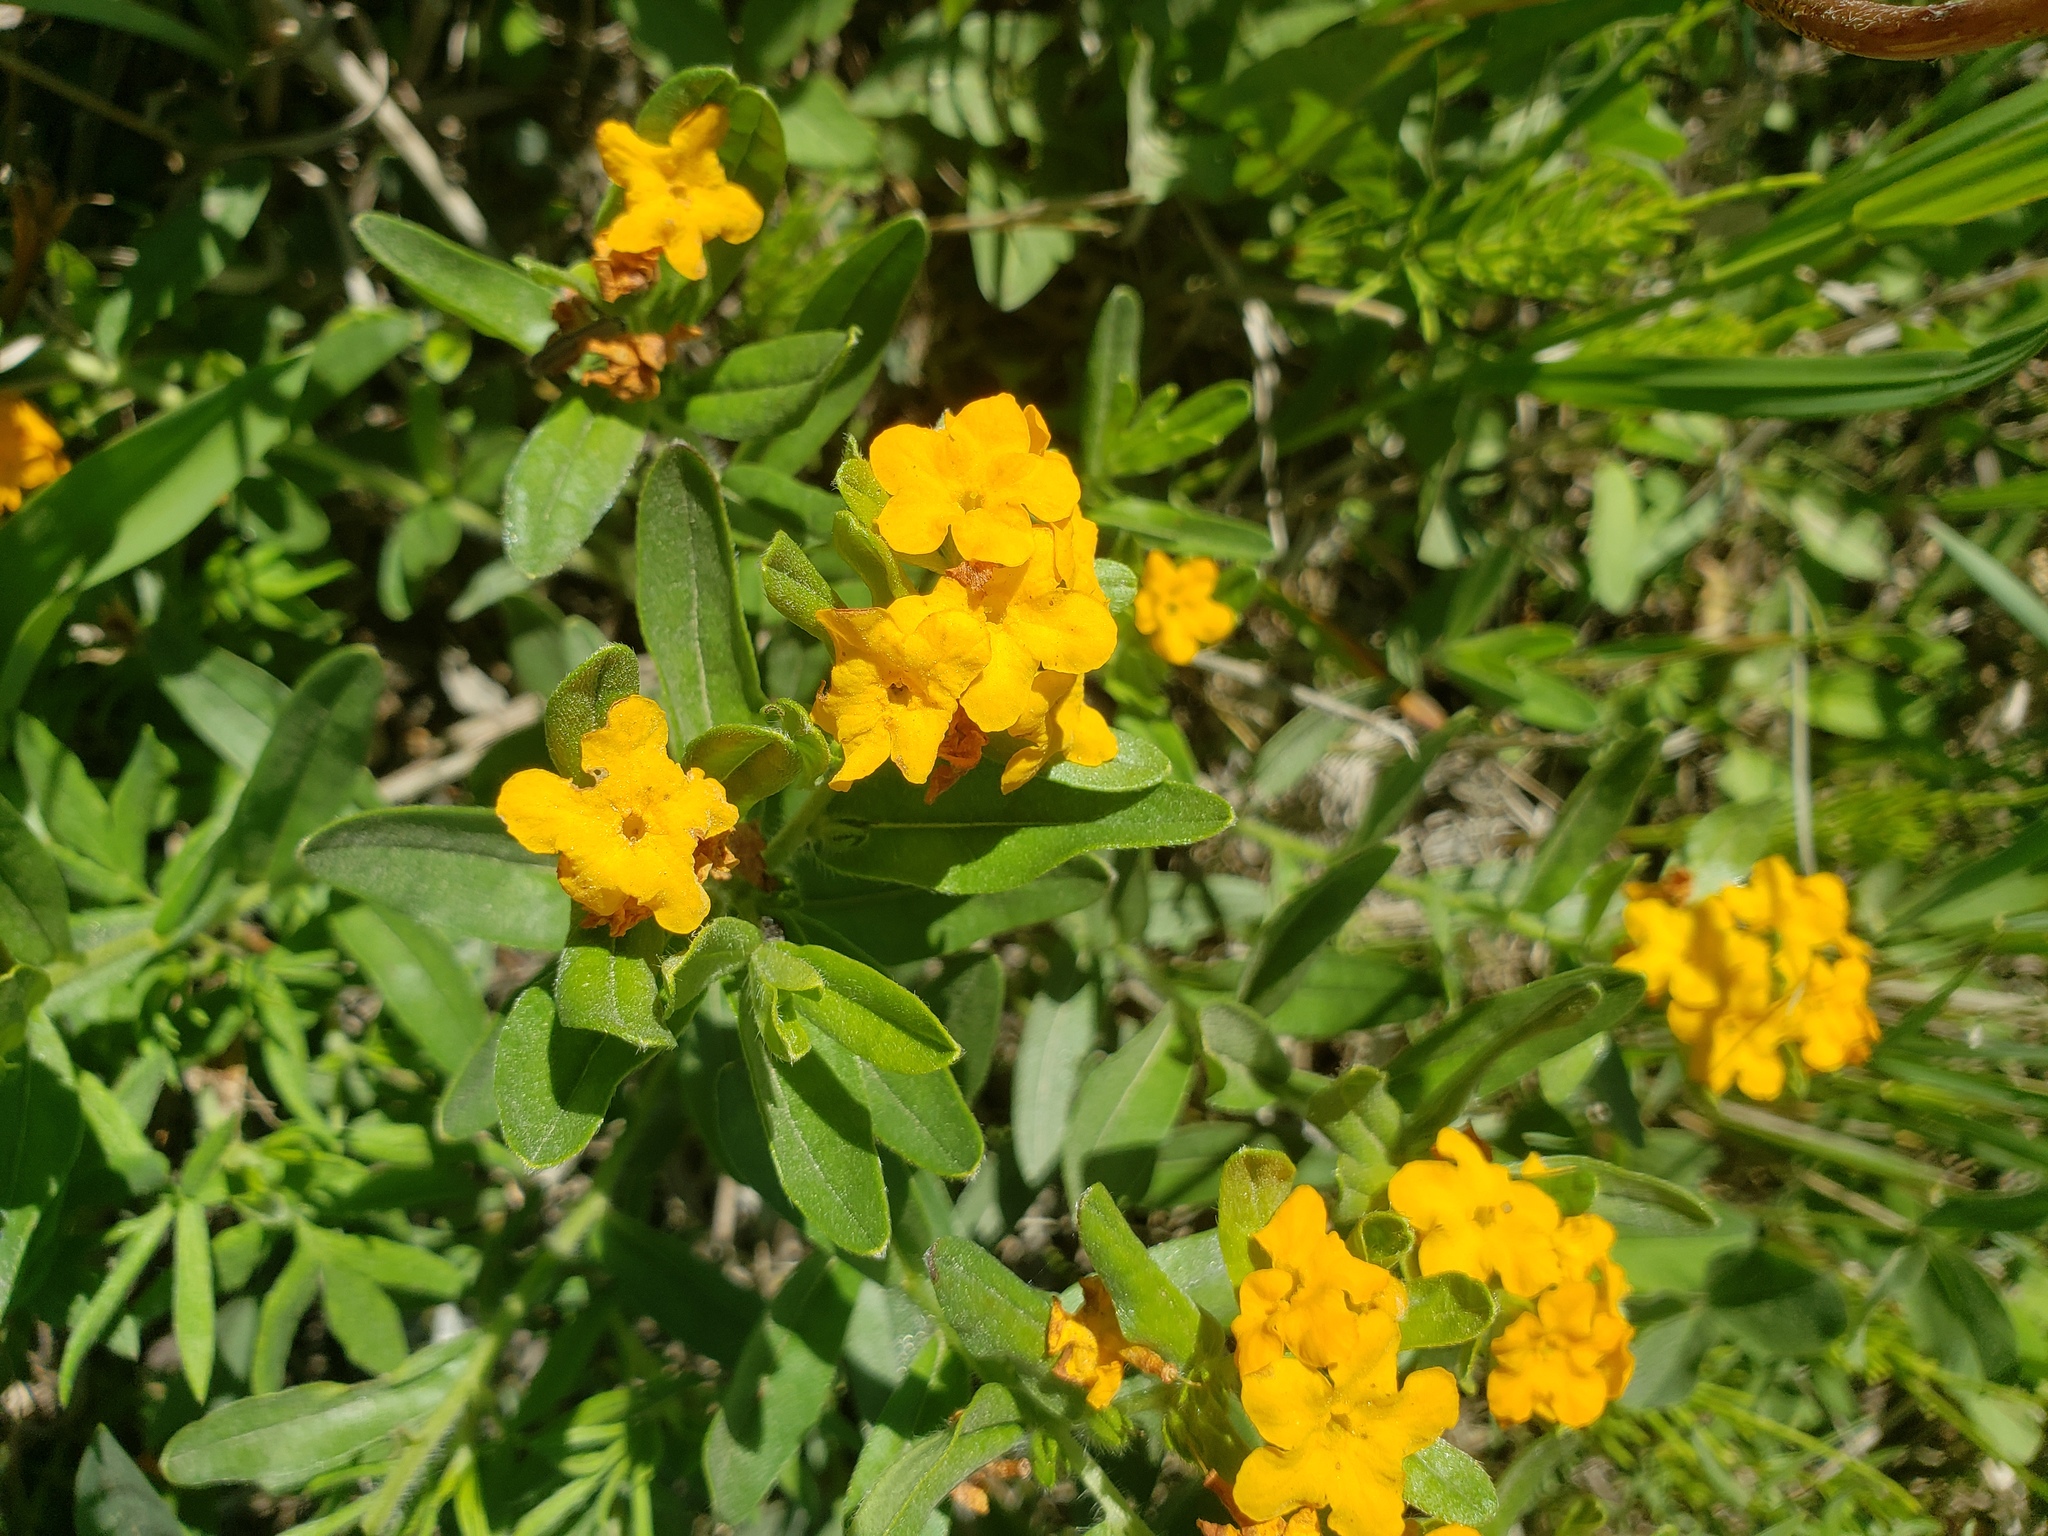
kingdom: Plantae
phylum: Tracheophyta
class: Magnoliopsida
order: Boraginales
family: Boraginaceae
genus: Lithospermum
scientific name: Lithospermum canescens
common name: Hoary puccoon
